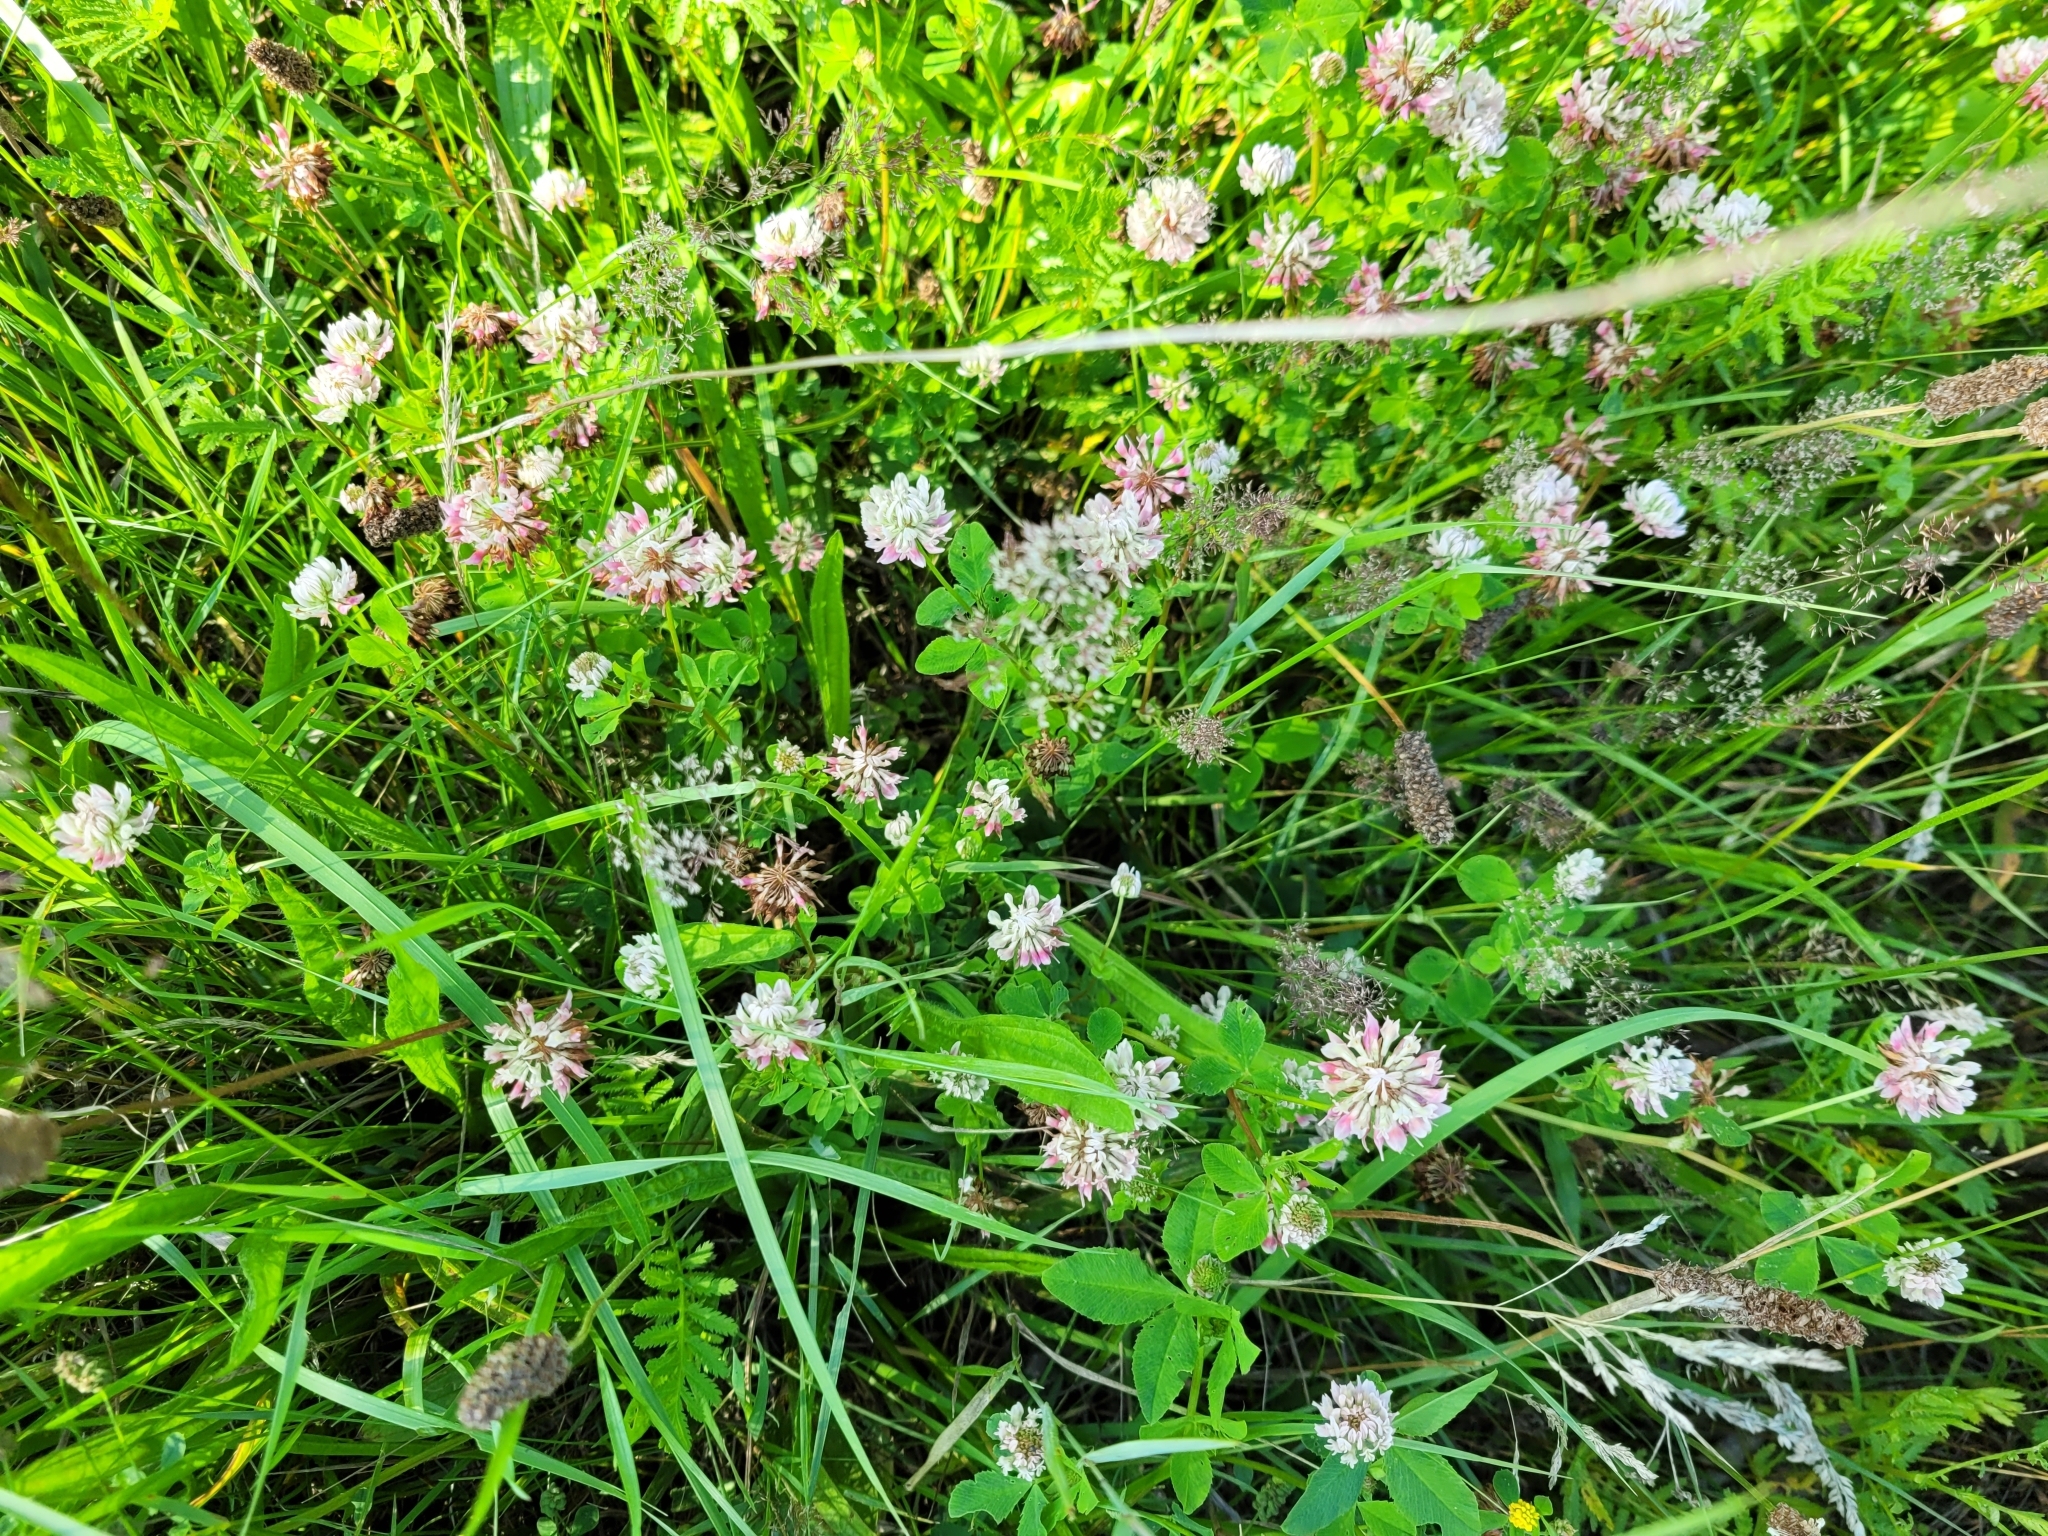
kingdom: Plantae
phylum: Tracheophyta
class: Magnoliopsida
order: Fabales
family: Fabaceae
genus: Trifolium
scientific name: Trifolium hybridum
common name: Alsike clover
